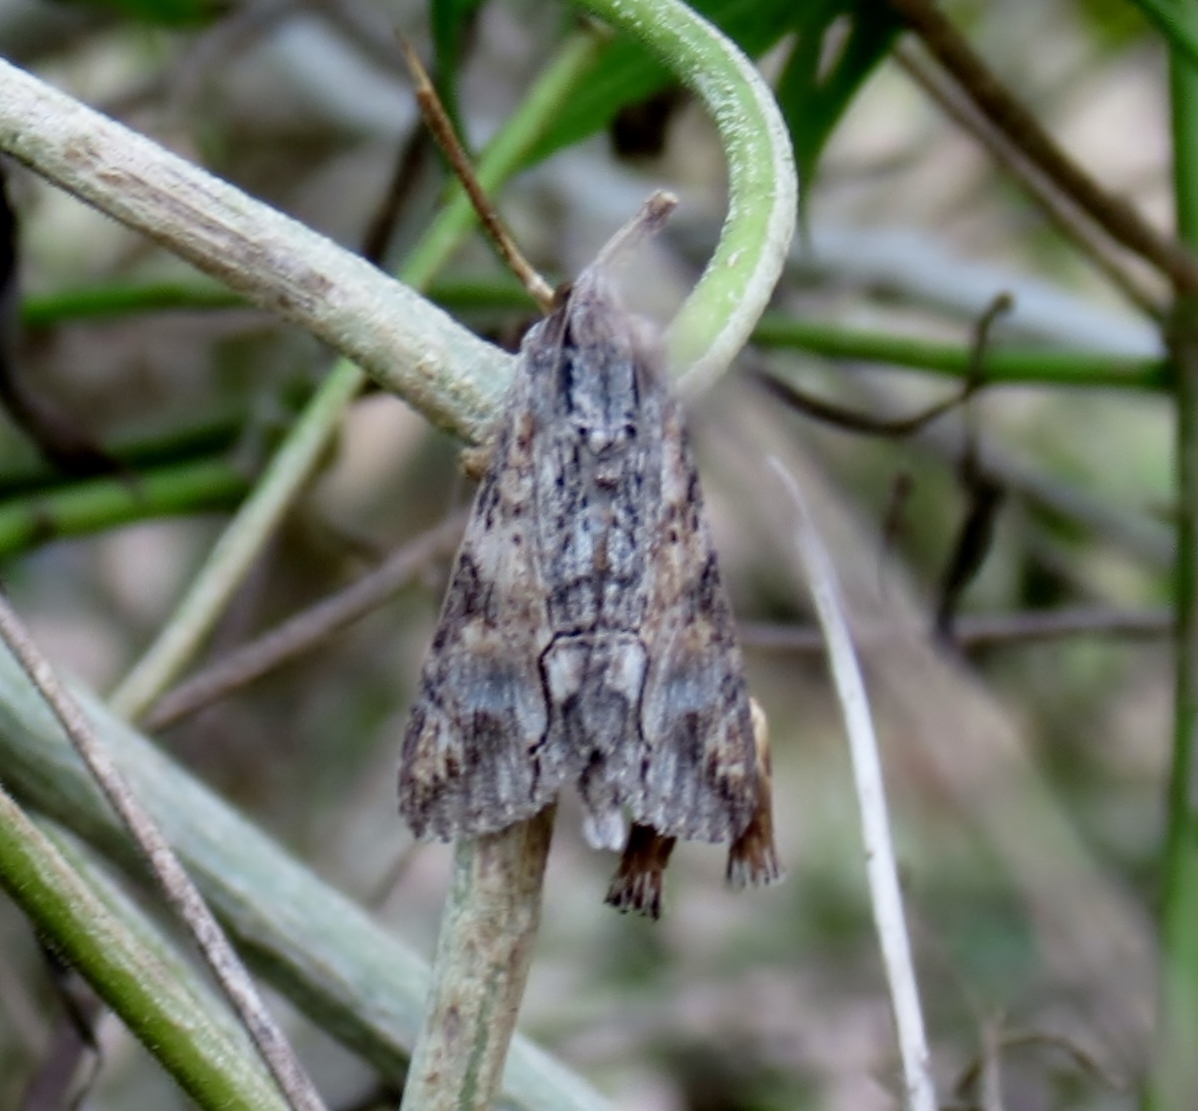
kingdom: Animalia
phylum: Arthropoda
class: Insecta
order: Lepidoptera
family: Erebidae
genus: Melipotis
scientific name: Melipotis acontioides
